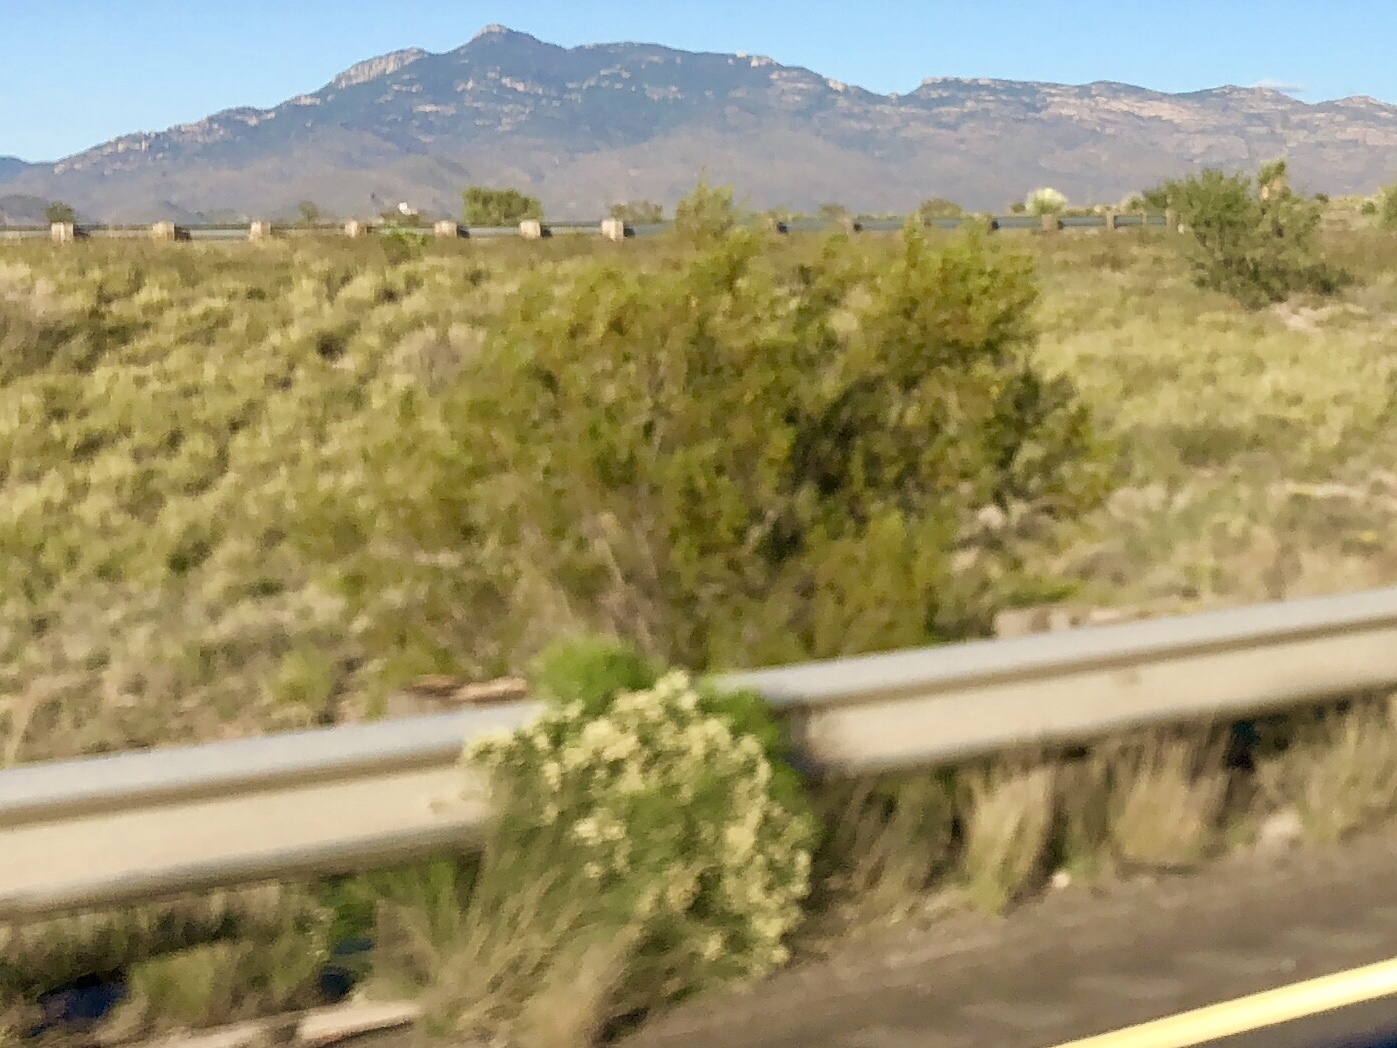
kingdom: Plantae
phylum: Tracheophyta
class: Magnoliopsida
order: Zygophyllales
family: Zygophyllaceae
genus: Larrea
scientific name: Larrea tridentata
